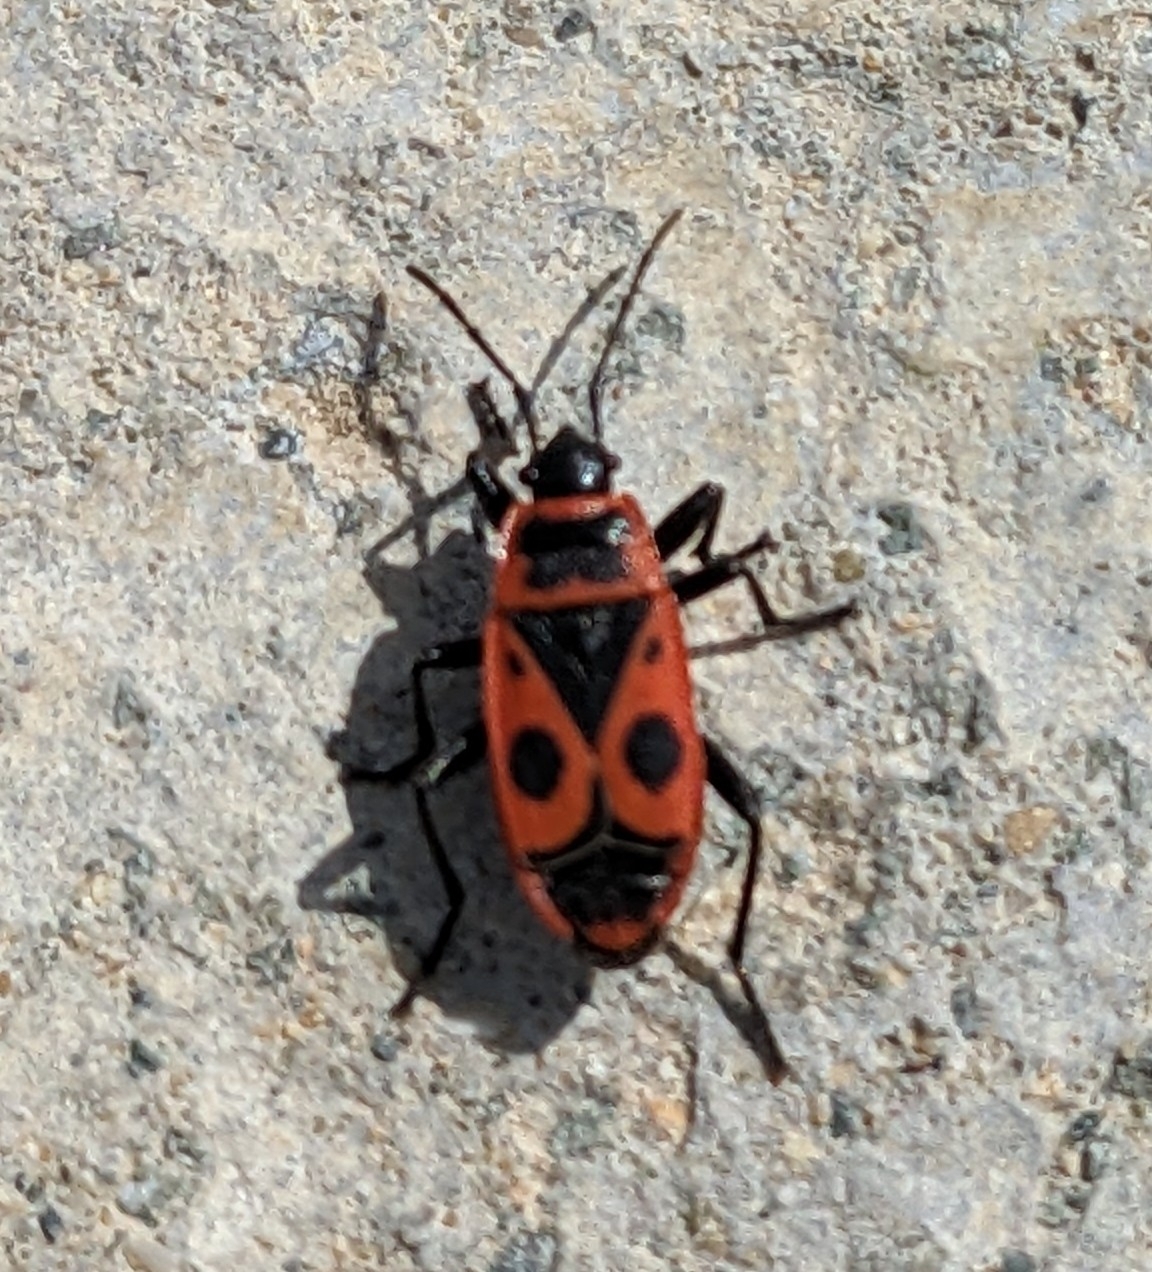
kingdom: Animalia
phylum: Arthropoda
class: Insecta
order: Hemiptera
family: Pyrrhocoridae
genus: Pyrrhocoris
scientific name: Pyrrhocoris apterus
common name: Firebug
